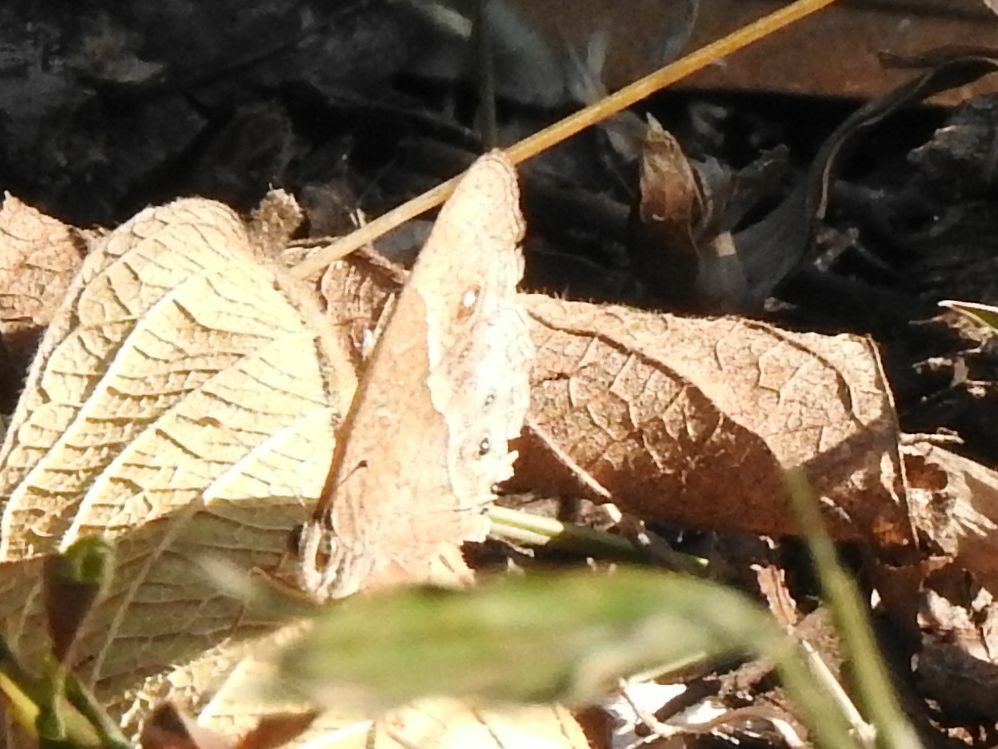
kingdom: Animalia
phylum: Arthropoda
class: Insecta
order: Lepidoptera
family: Nymphalidae
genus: Mycalesis
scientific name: Mycalesis anynana
